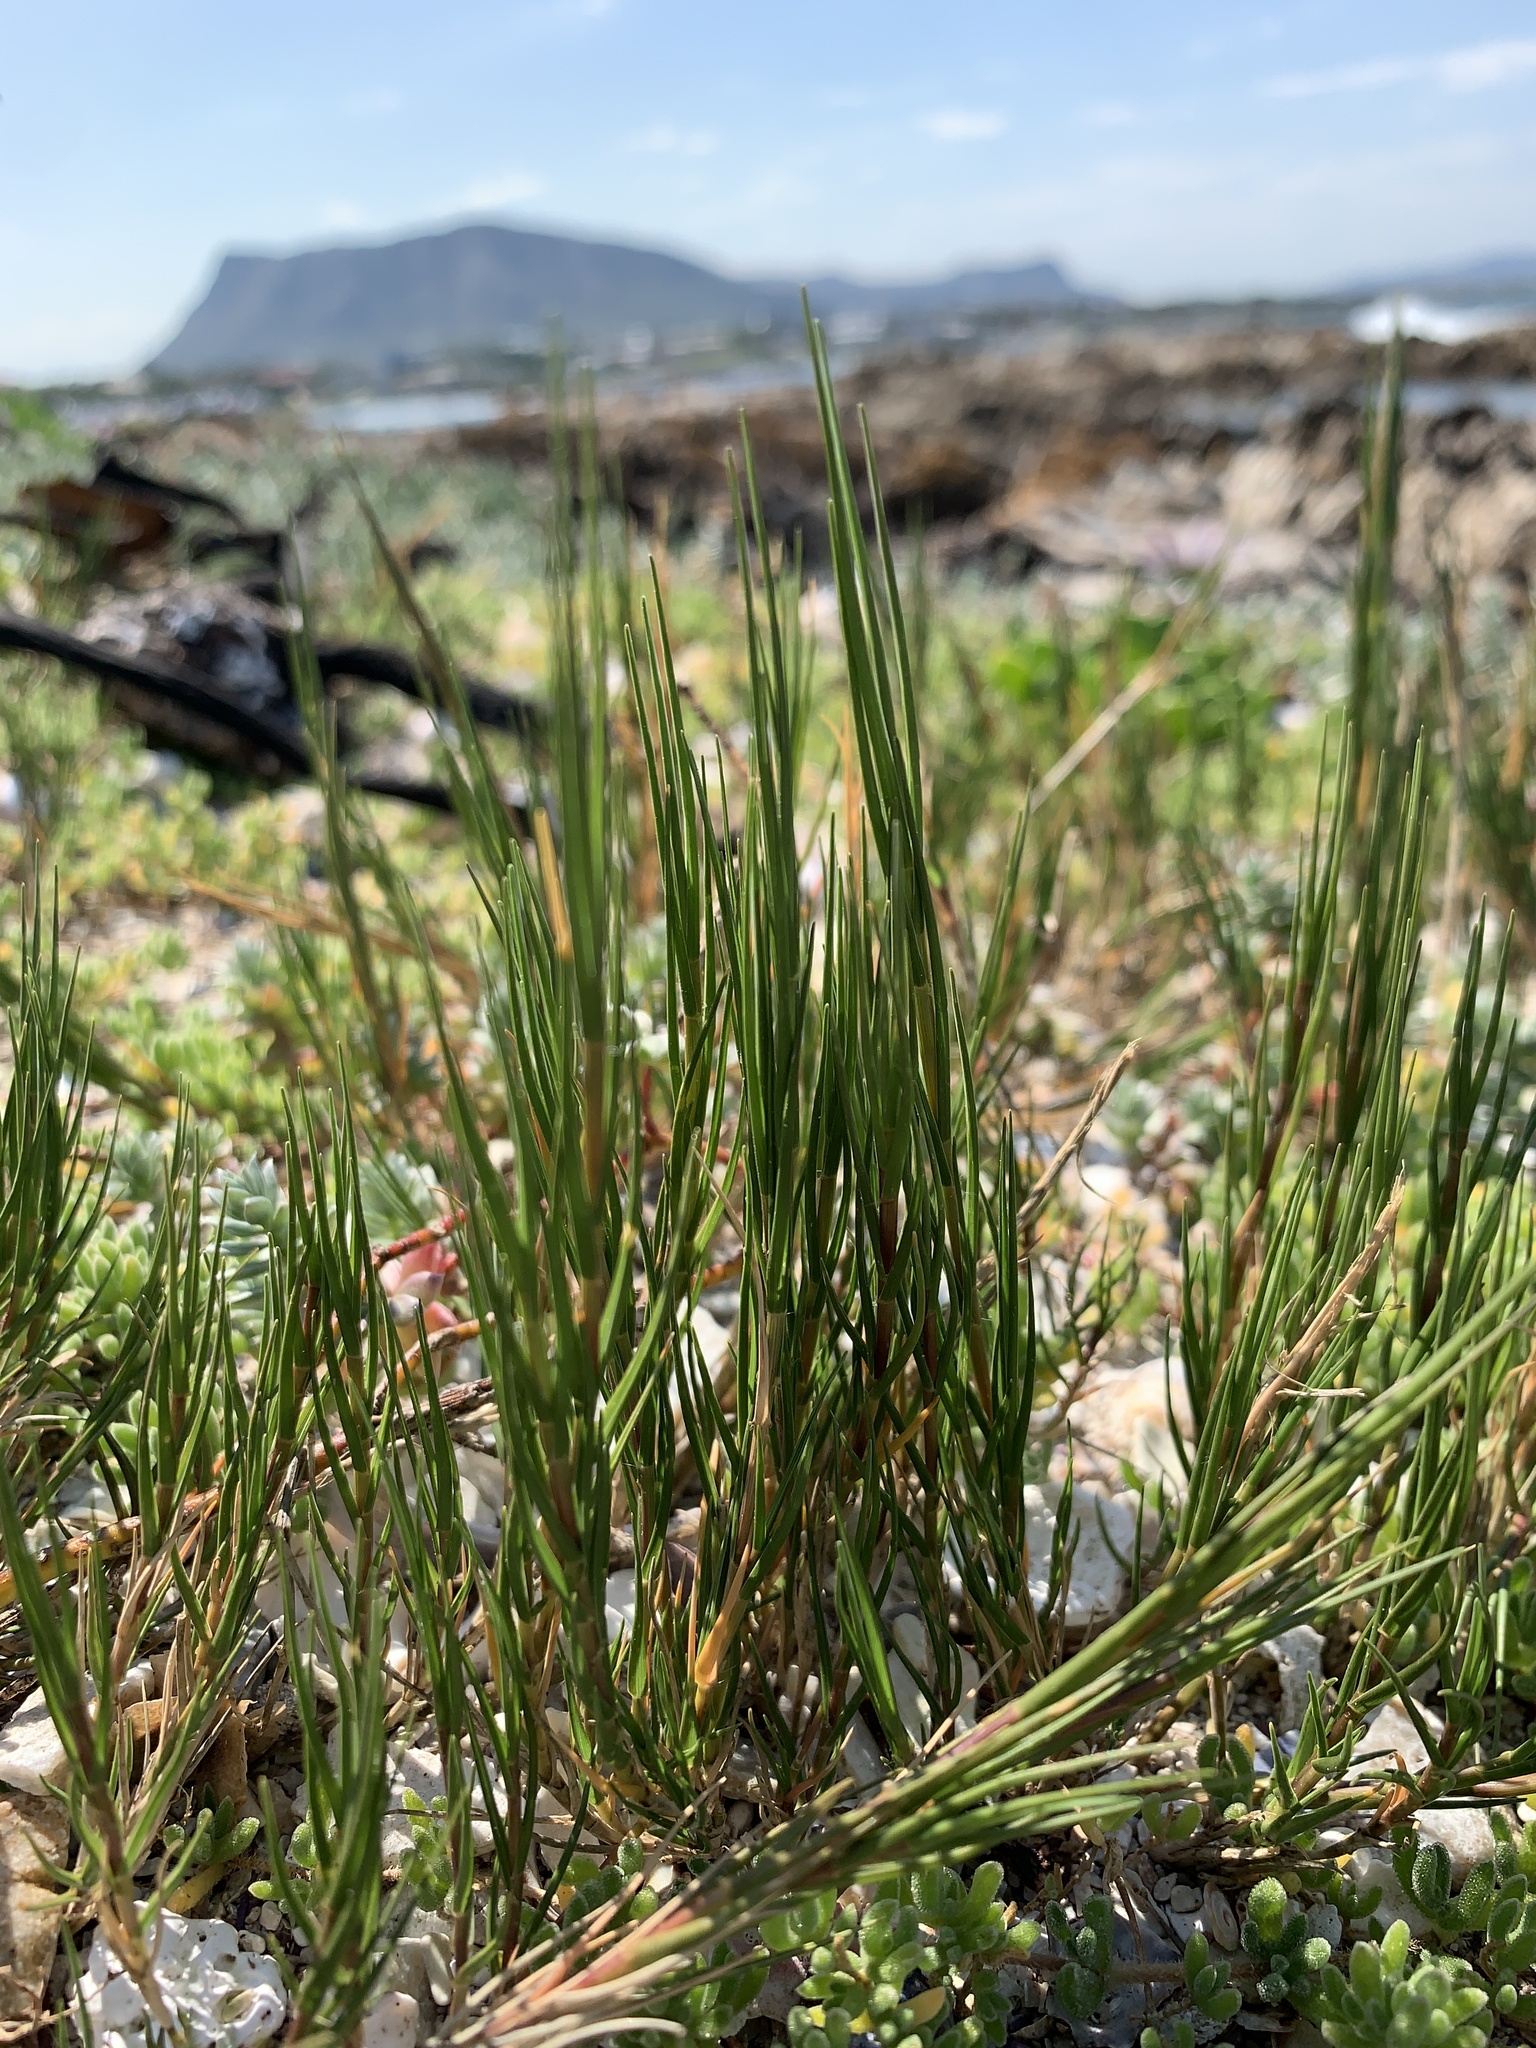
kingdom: Plantae
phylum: Tracheophyta
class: Liliopsida
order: Poales
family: Poaceae
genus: Sporobolus
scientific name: Sporobolus virginicus
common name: Beach dropseed
